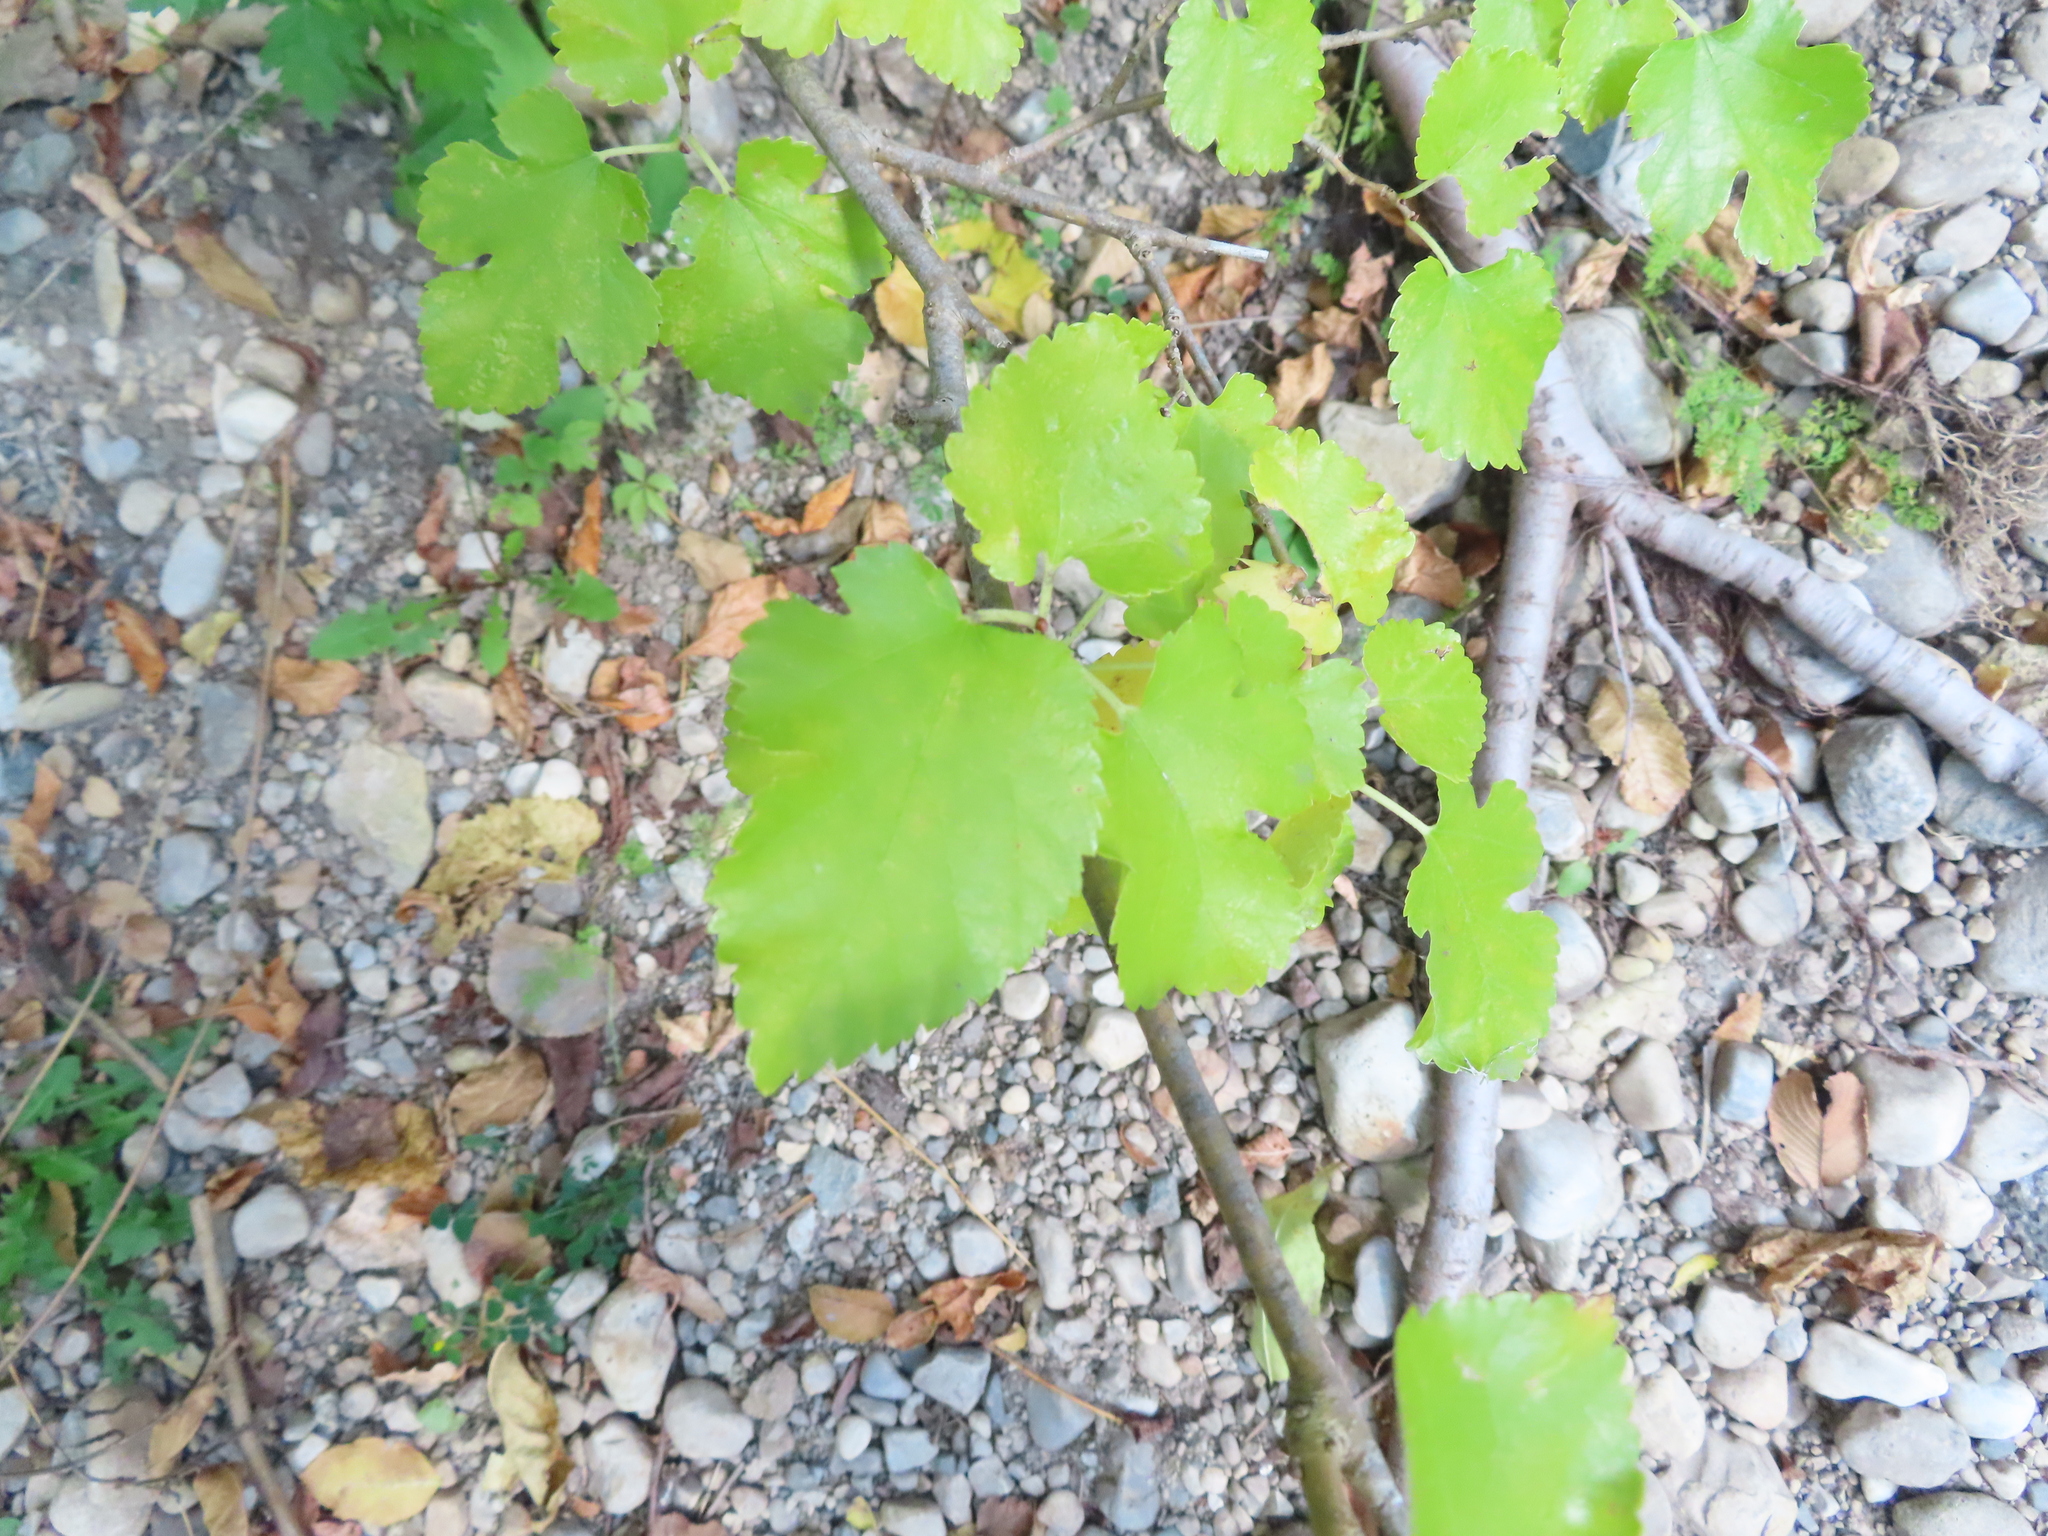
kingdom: Plantae
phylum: Tracheophyta
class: Magnoliopsida
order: Rosales
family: Moraceae
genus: Morus
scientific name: Morus alba
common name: White mulberry
